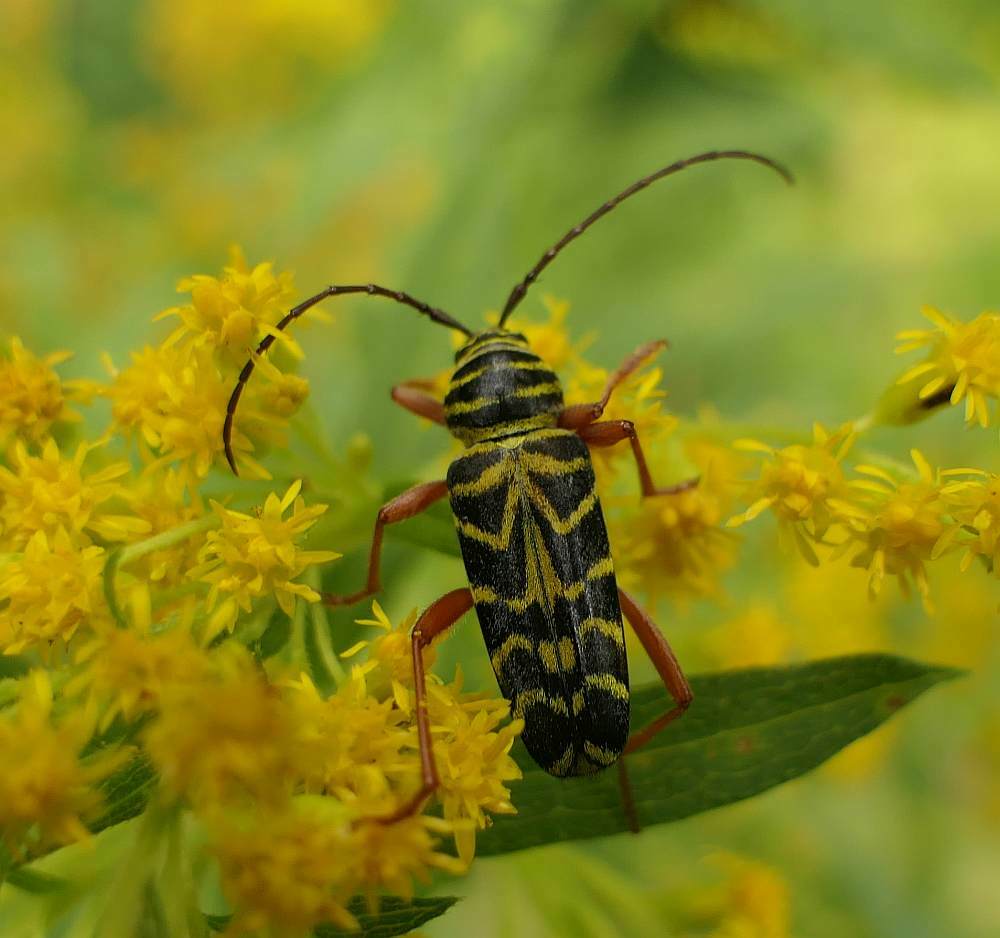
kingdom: Animalia
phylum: Arthropoda
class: Insecta
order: Coleoptera
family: Cerambycidae
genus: Megacyllene
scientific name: Megacyllene robiniae
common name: Locust borer
